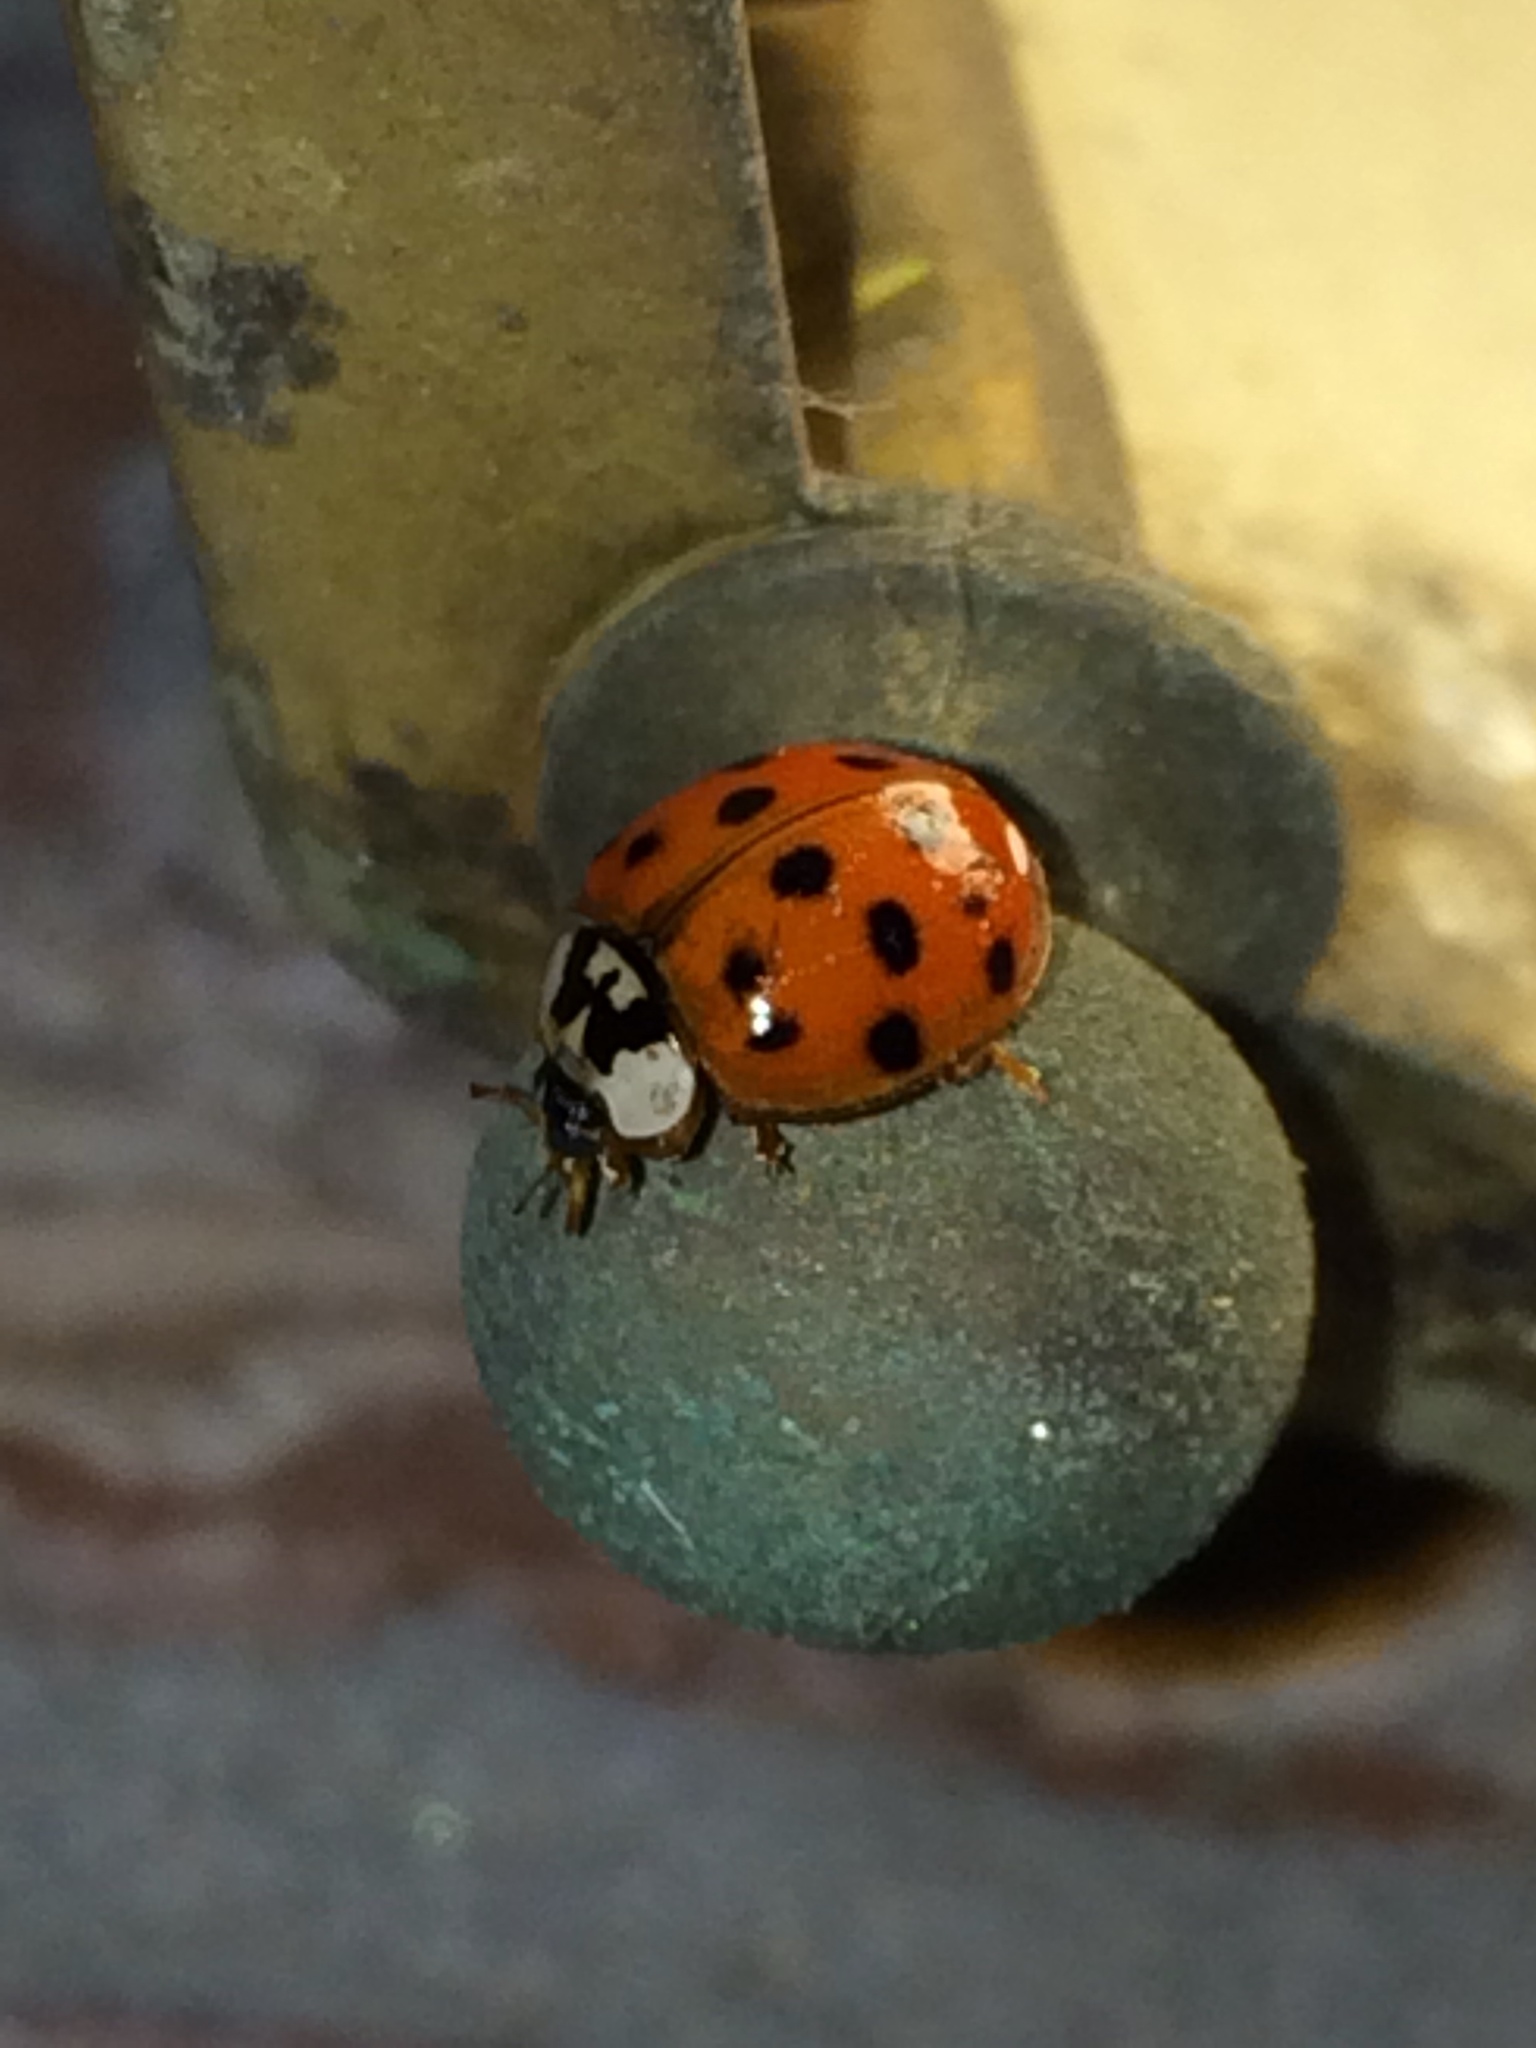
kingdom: Animalia
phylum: Arthropoda
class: Insecta
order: Coleoptera
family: Coccinellidae
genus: Harmonia
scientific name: Harmonia axyridis
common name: Harlequin ladybird
